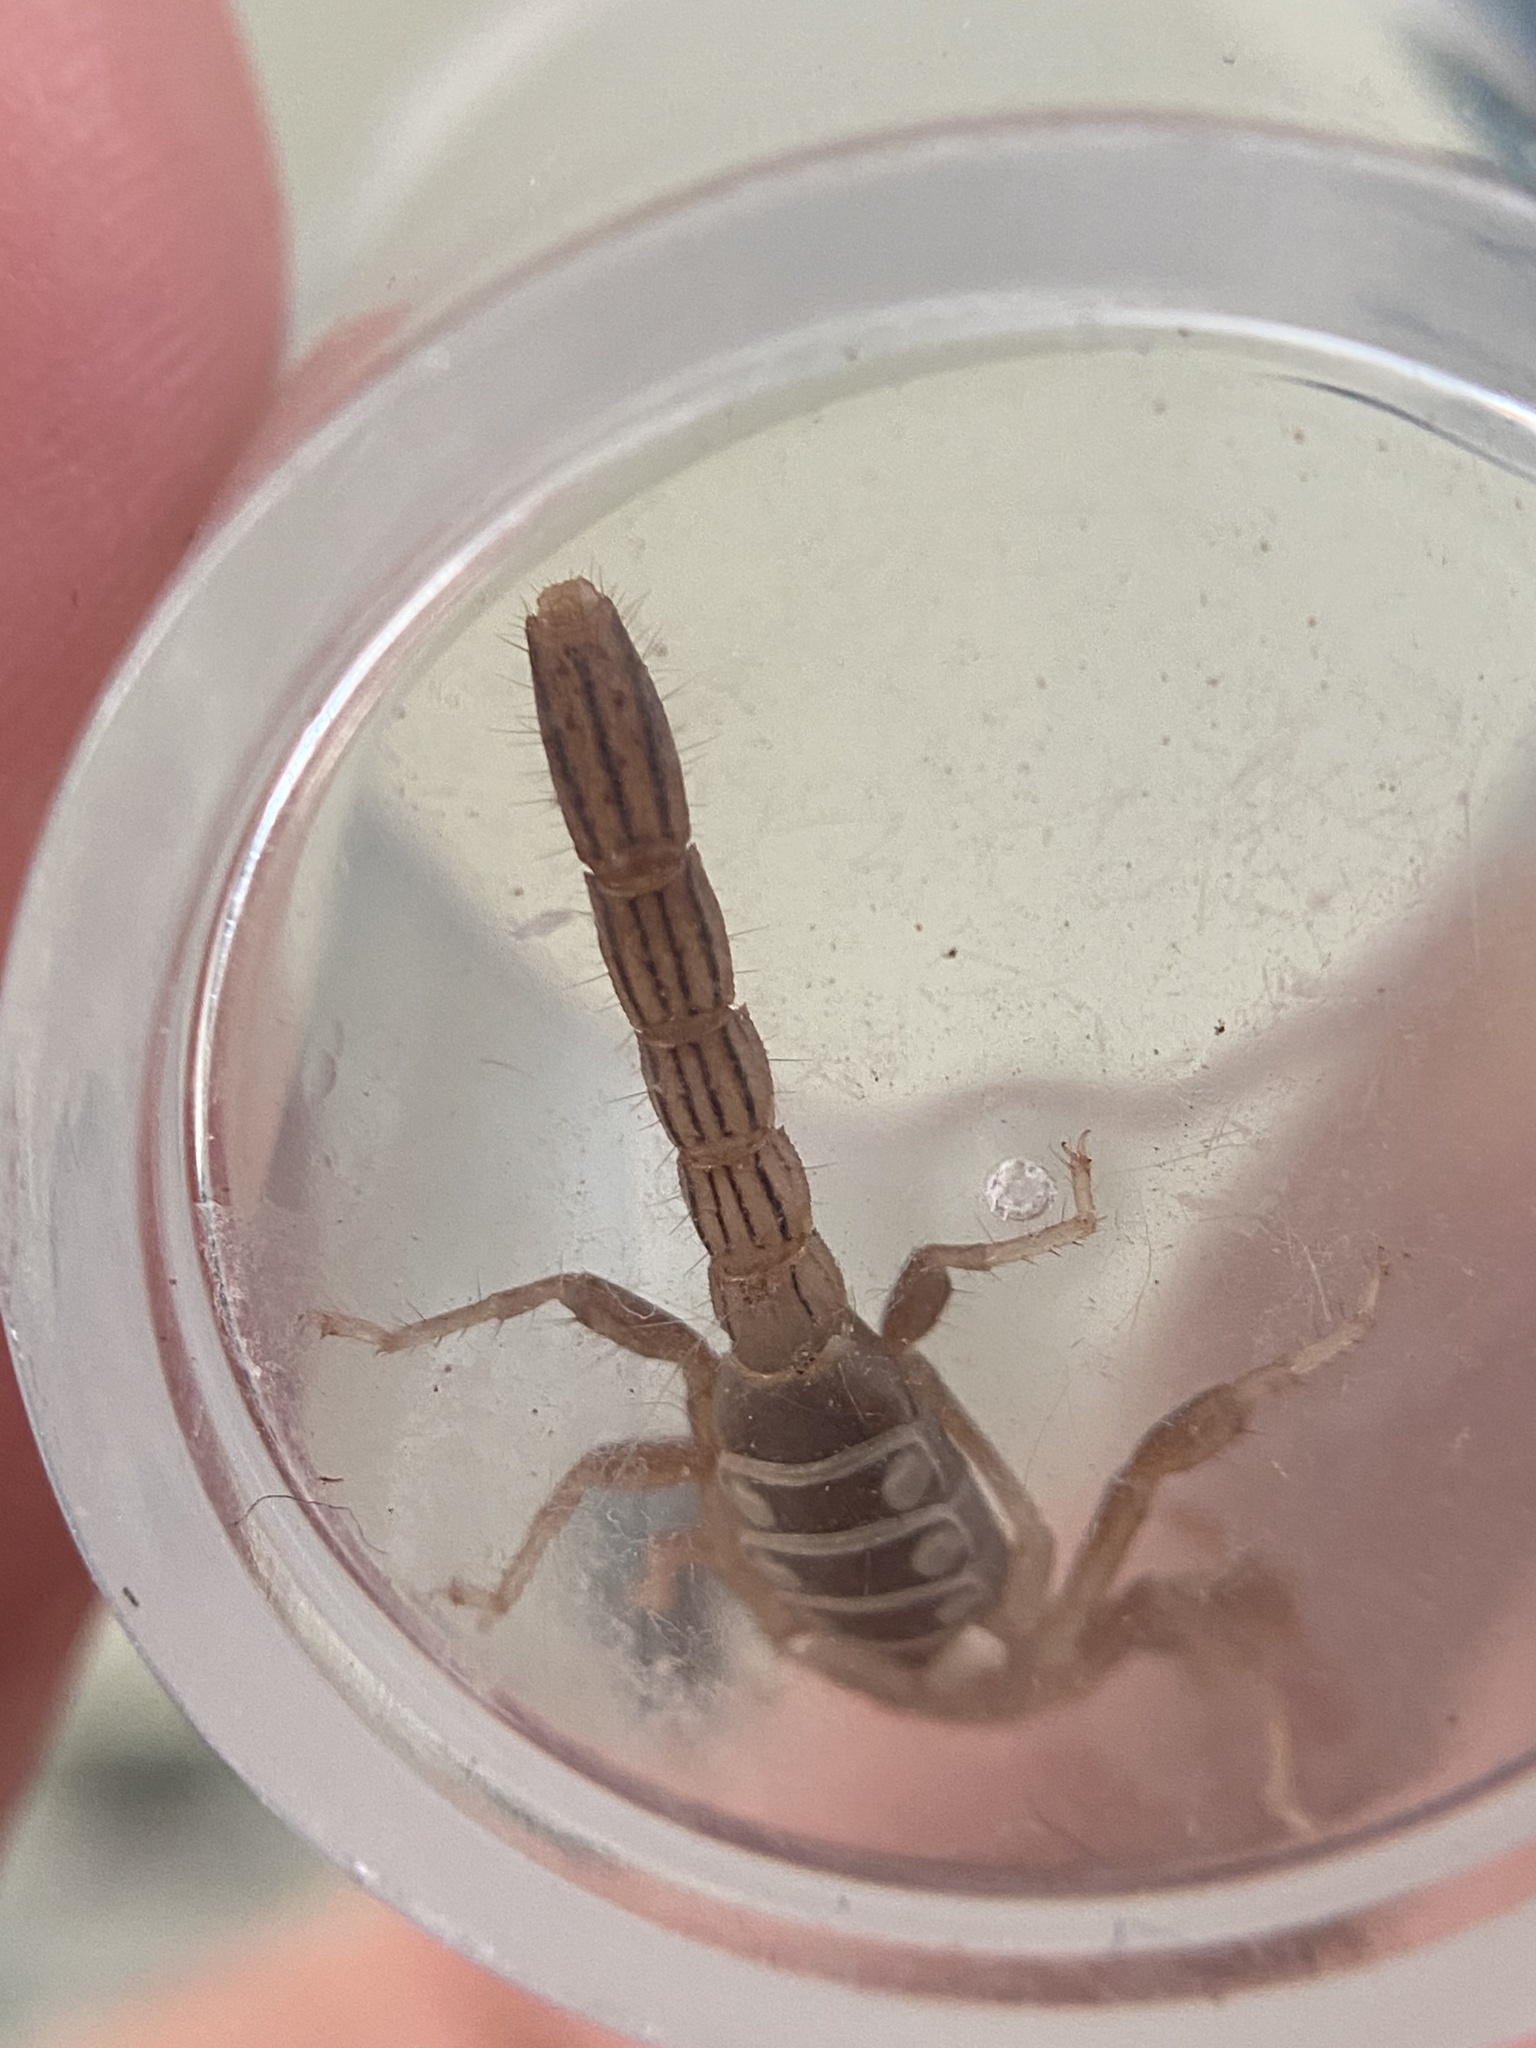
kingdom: Animalia
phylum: Arthropoda
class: Arachnida
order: Scorpiones
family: Vaejovidae
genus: Paravaejovis
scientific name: Paravaejovis spinigerus
